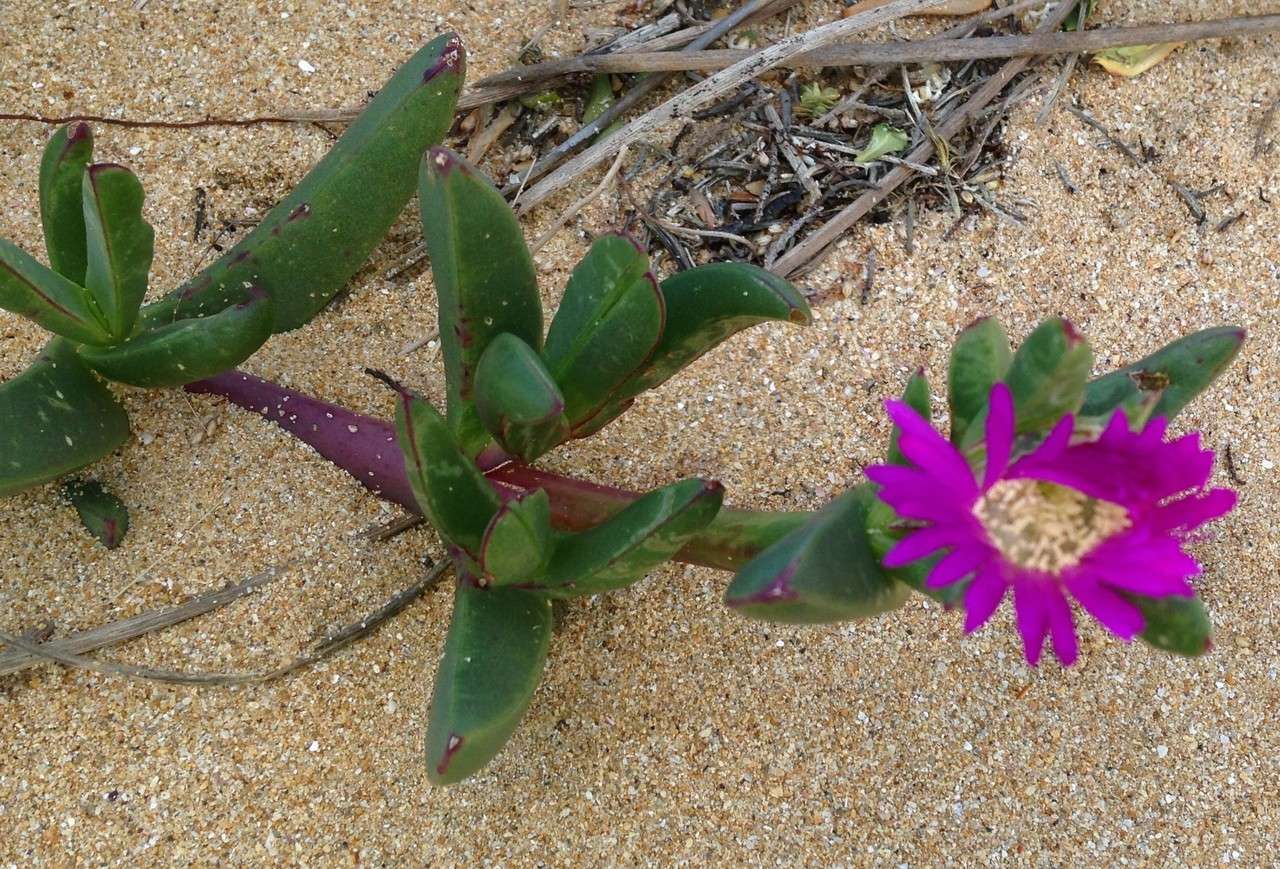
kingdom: Plantae
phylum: Tracheophyta
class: Magnoliopsida
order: Caryophyllales
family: Aizoaceae
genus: Carpobrotus
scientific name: Carpobrotus rossii
